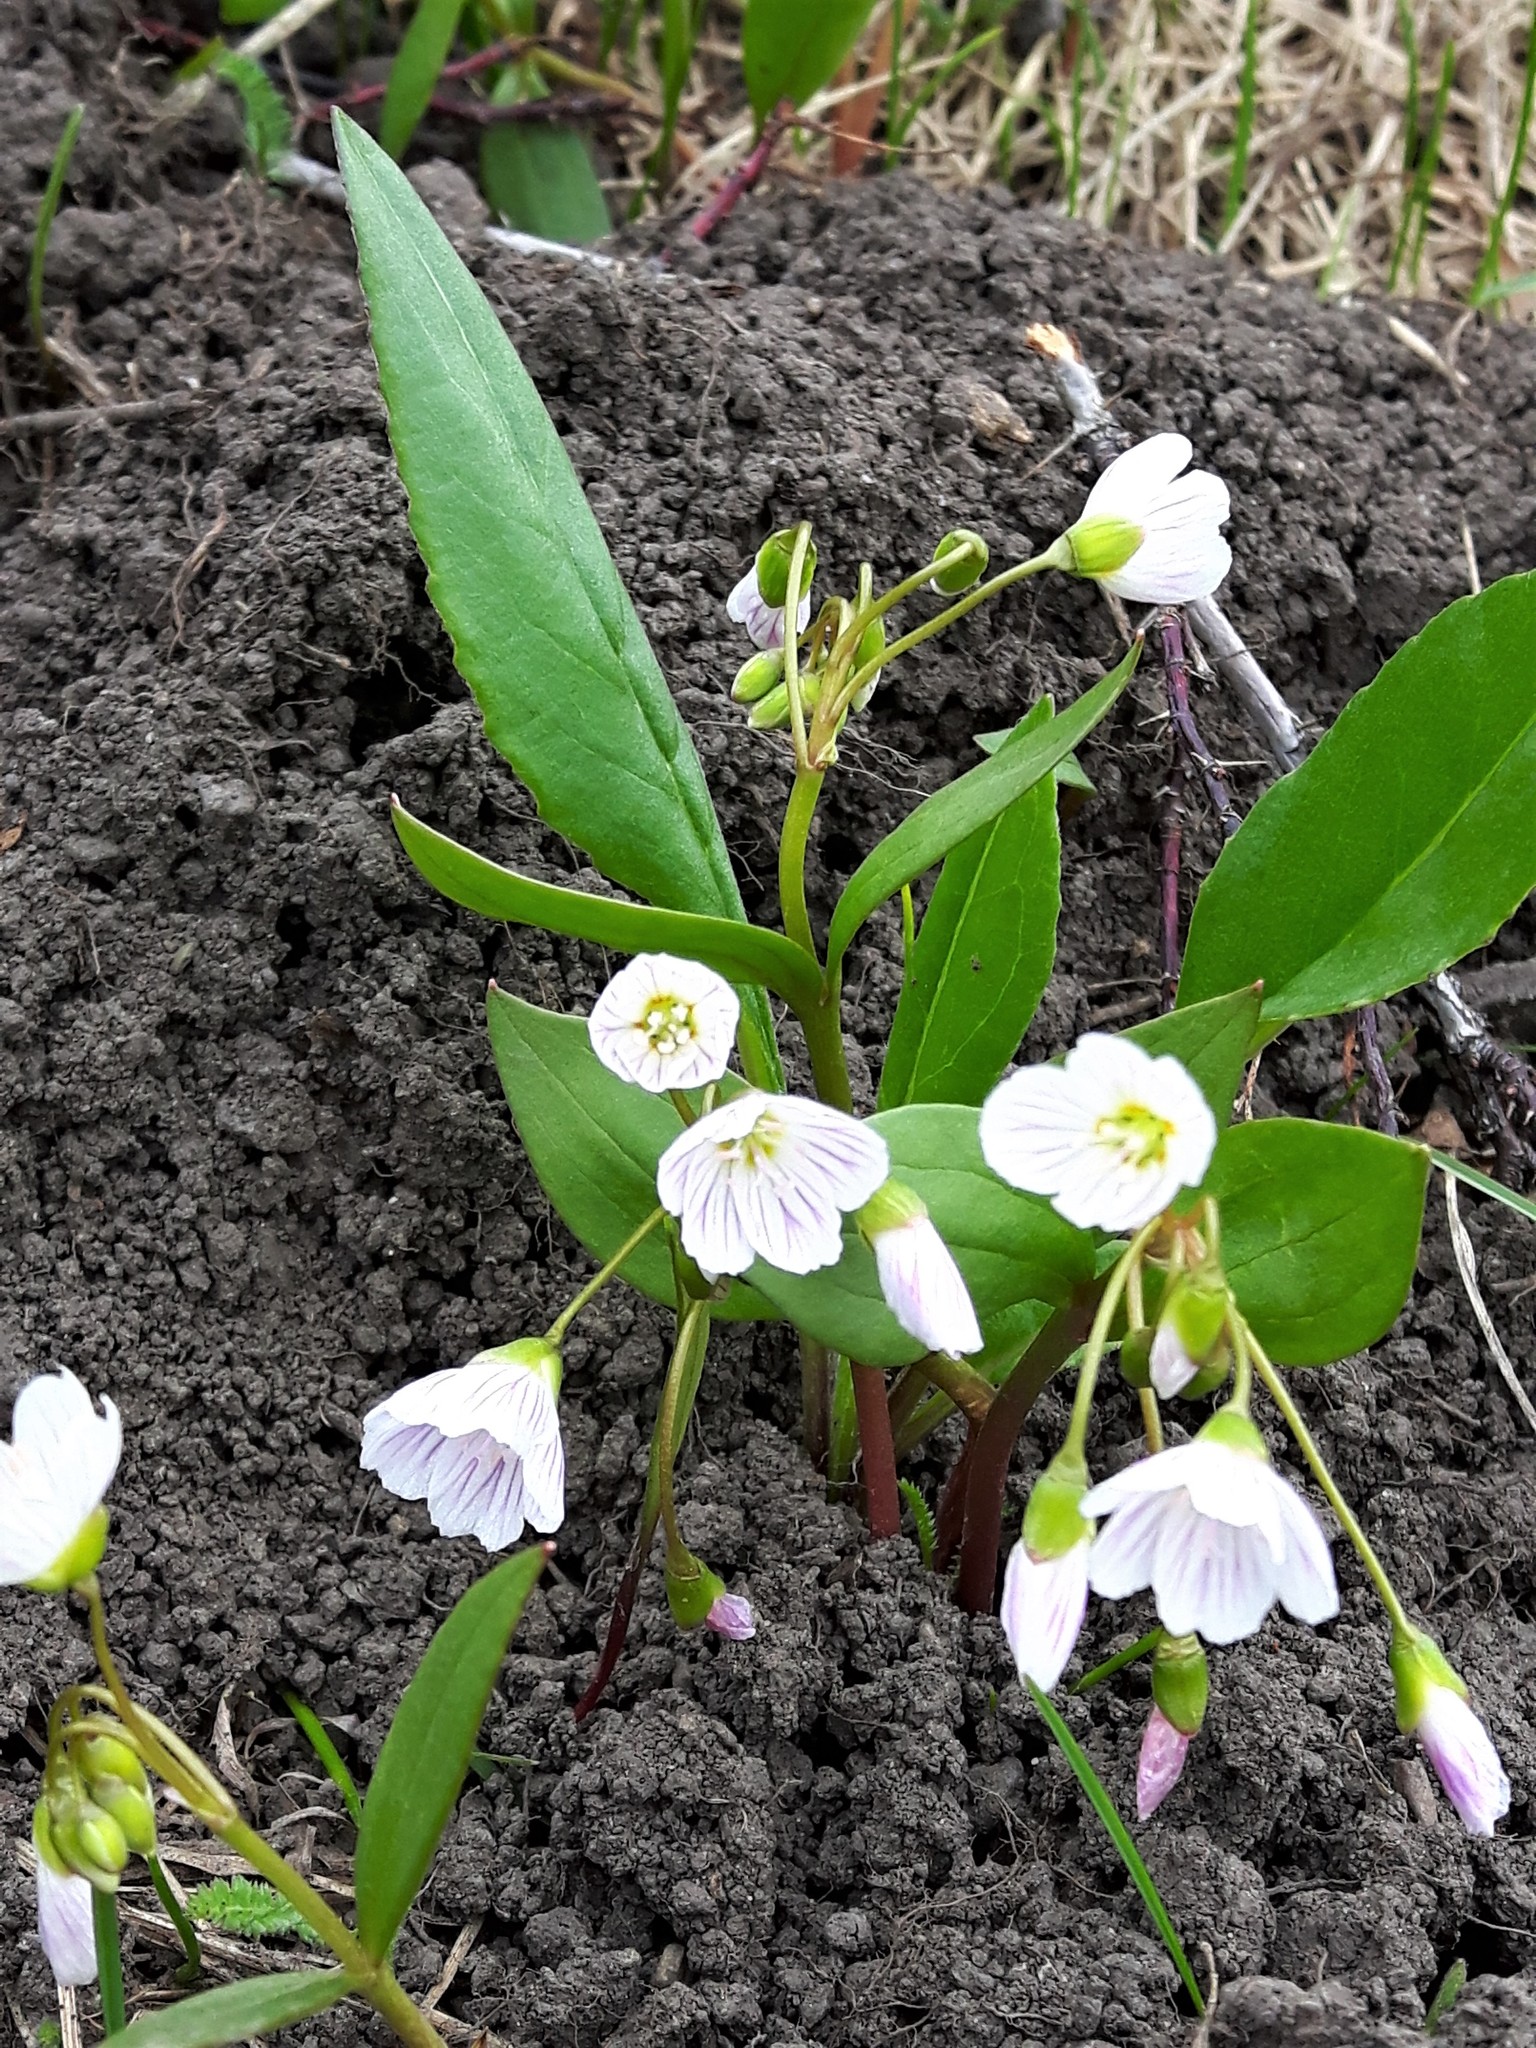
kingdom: Plantae
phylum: Tracheophyta
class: Magnoliopsida
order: Caryophyllales
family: Montiaceae
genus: Claytonia
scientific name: Claytonia lanceolata
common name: Western spring-beauty
